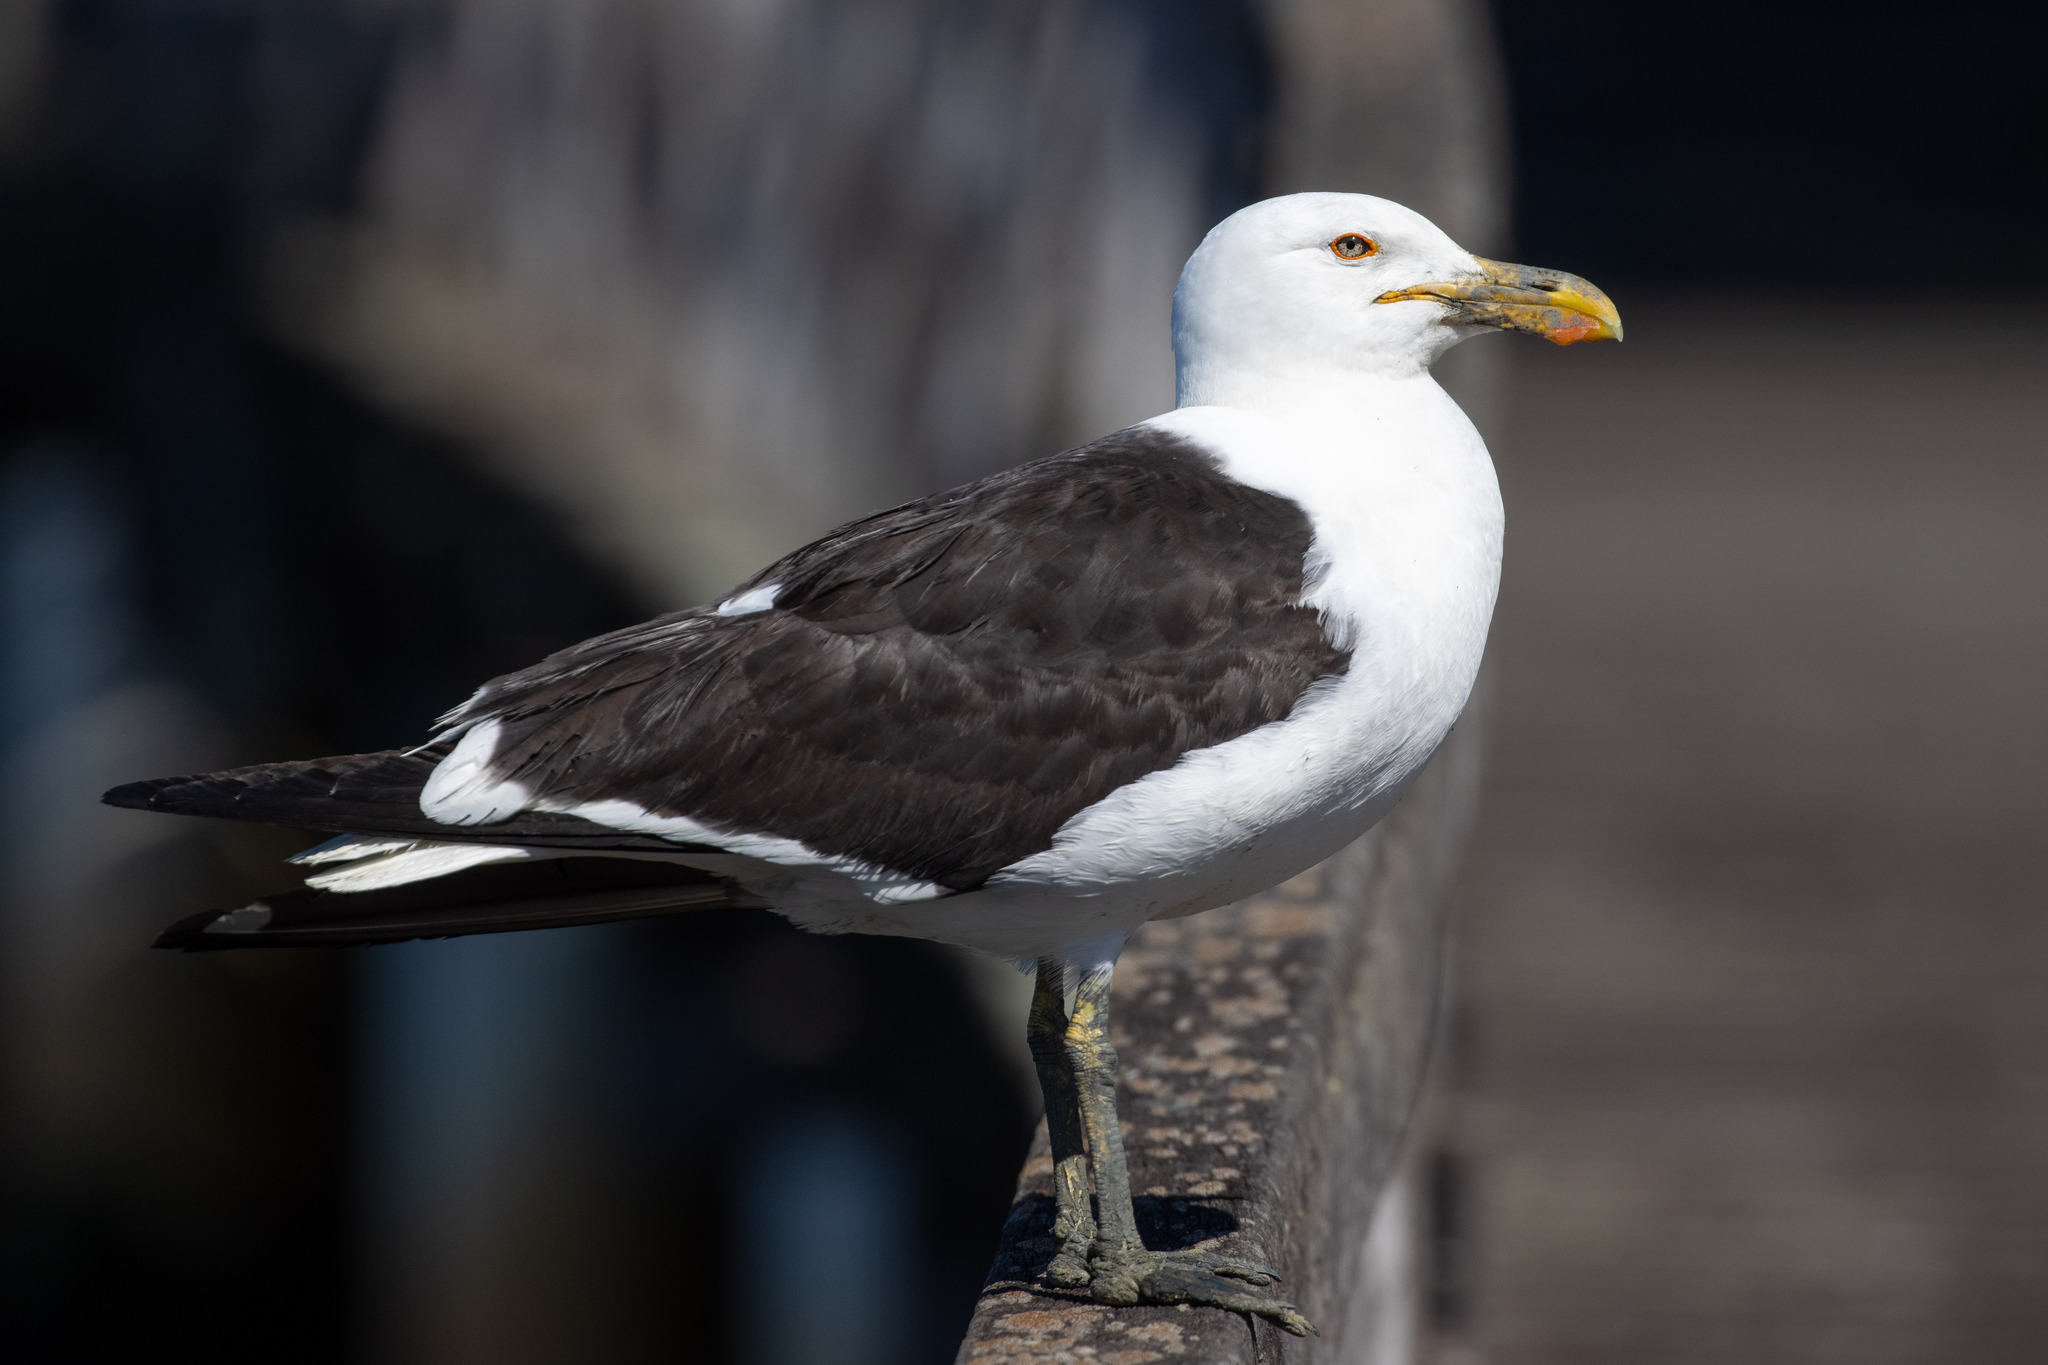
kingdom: Animalia
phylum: Chordata
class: Aves
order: Charadriiformes
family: Laridae
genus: Larus
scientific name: Larus dominicanus
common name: Kelp gull
